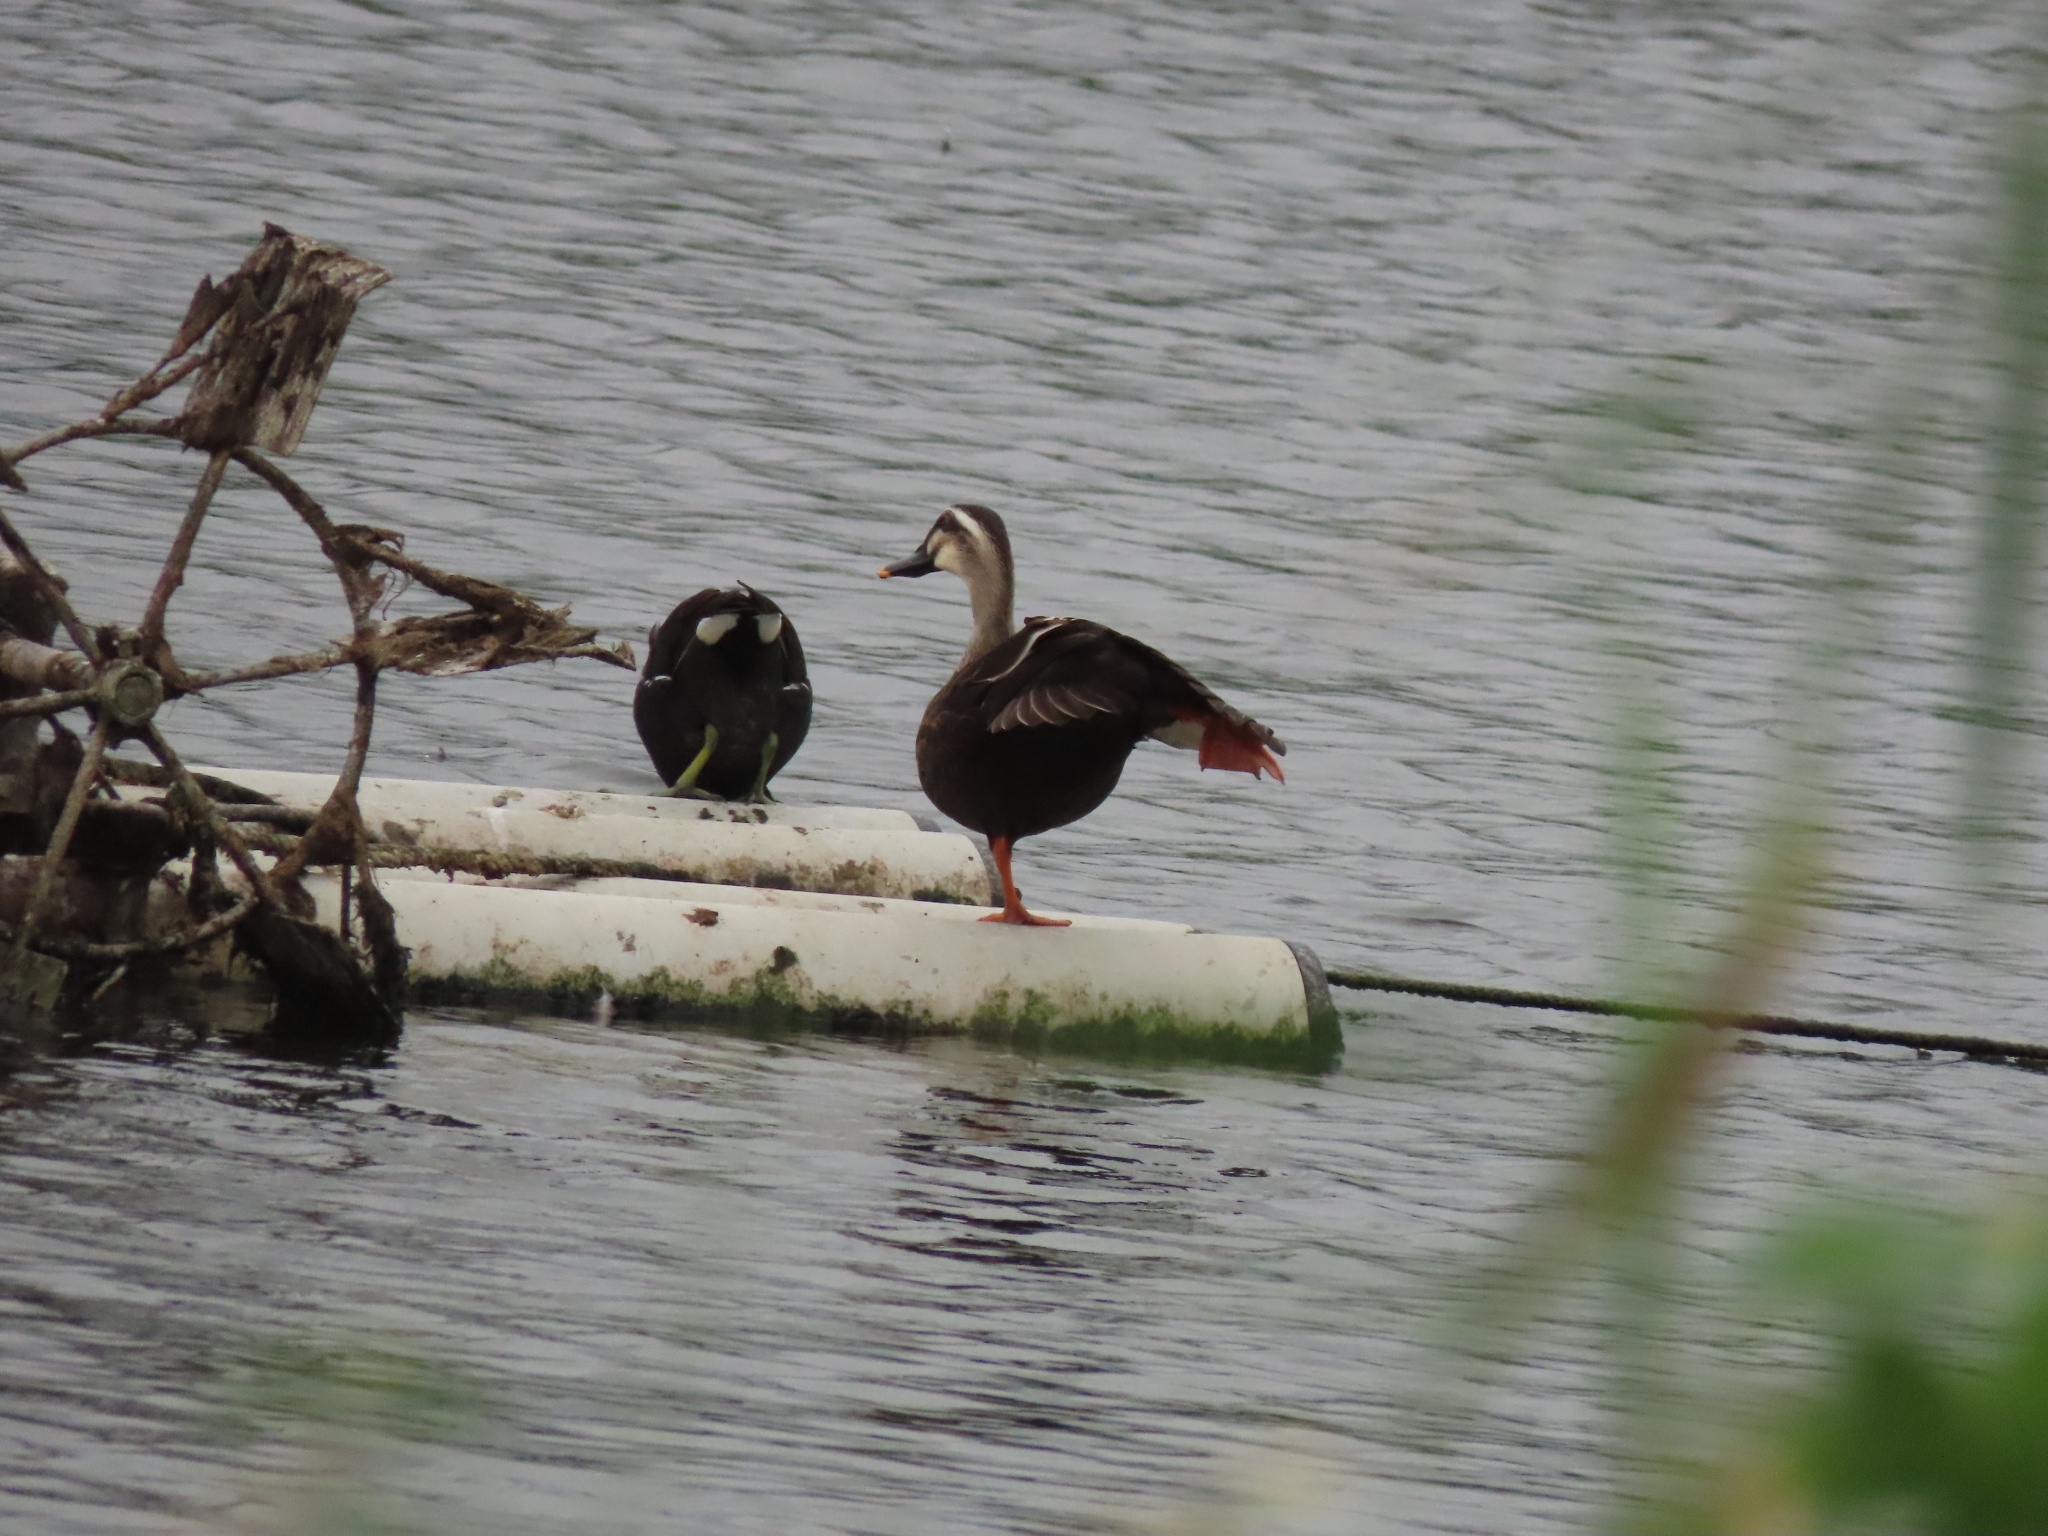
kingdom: Animalia
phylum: Chordata
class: Aves
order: Anseriformes
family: Anatidae
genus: Anas
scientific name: Anas zonorhyncha
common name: Eastern spot-billed duck
